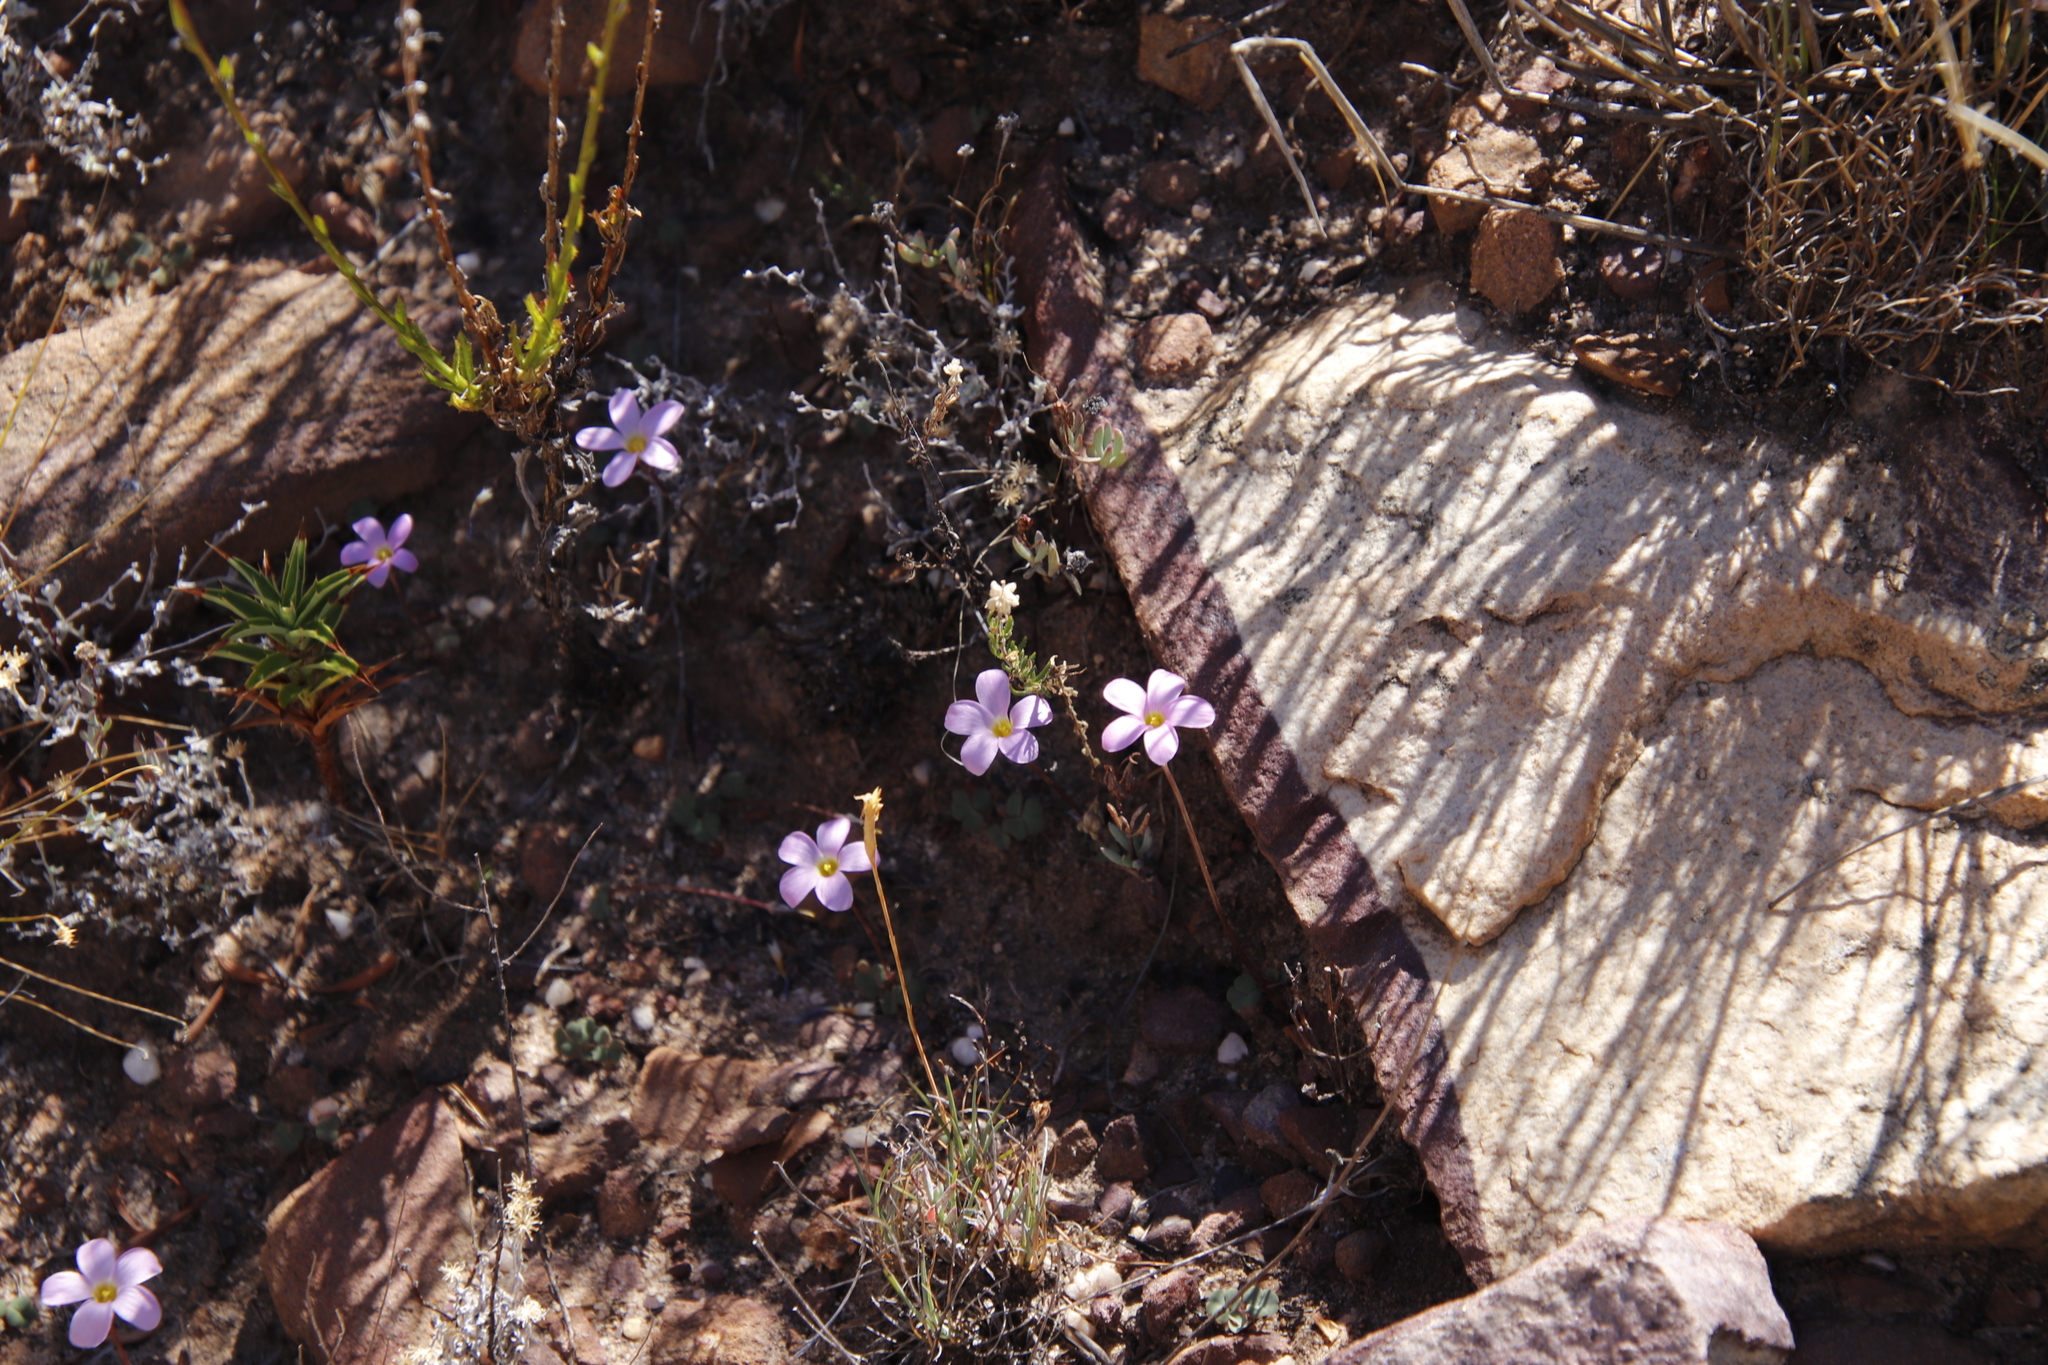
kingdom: Plantae
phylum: Tracheophyta
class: Magnoliopsida
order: Oxalidales
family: Oxalidaceae
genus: Oxalis
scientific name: Oxalis pocockiae
